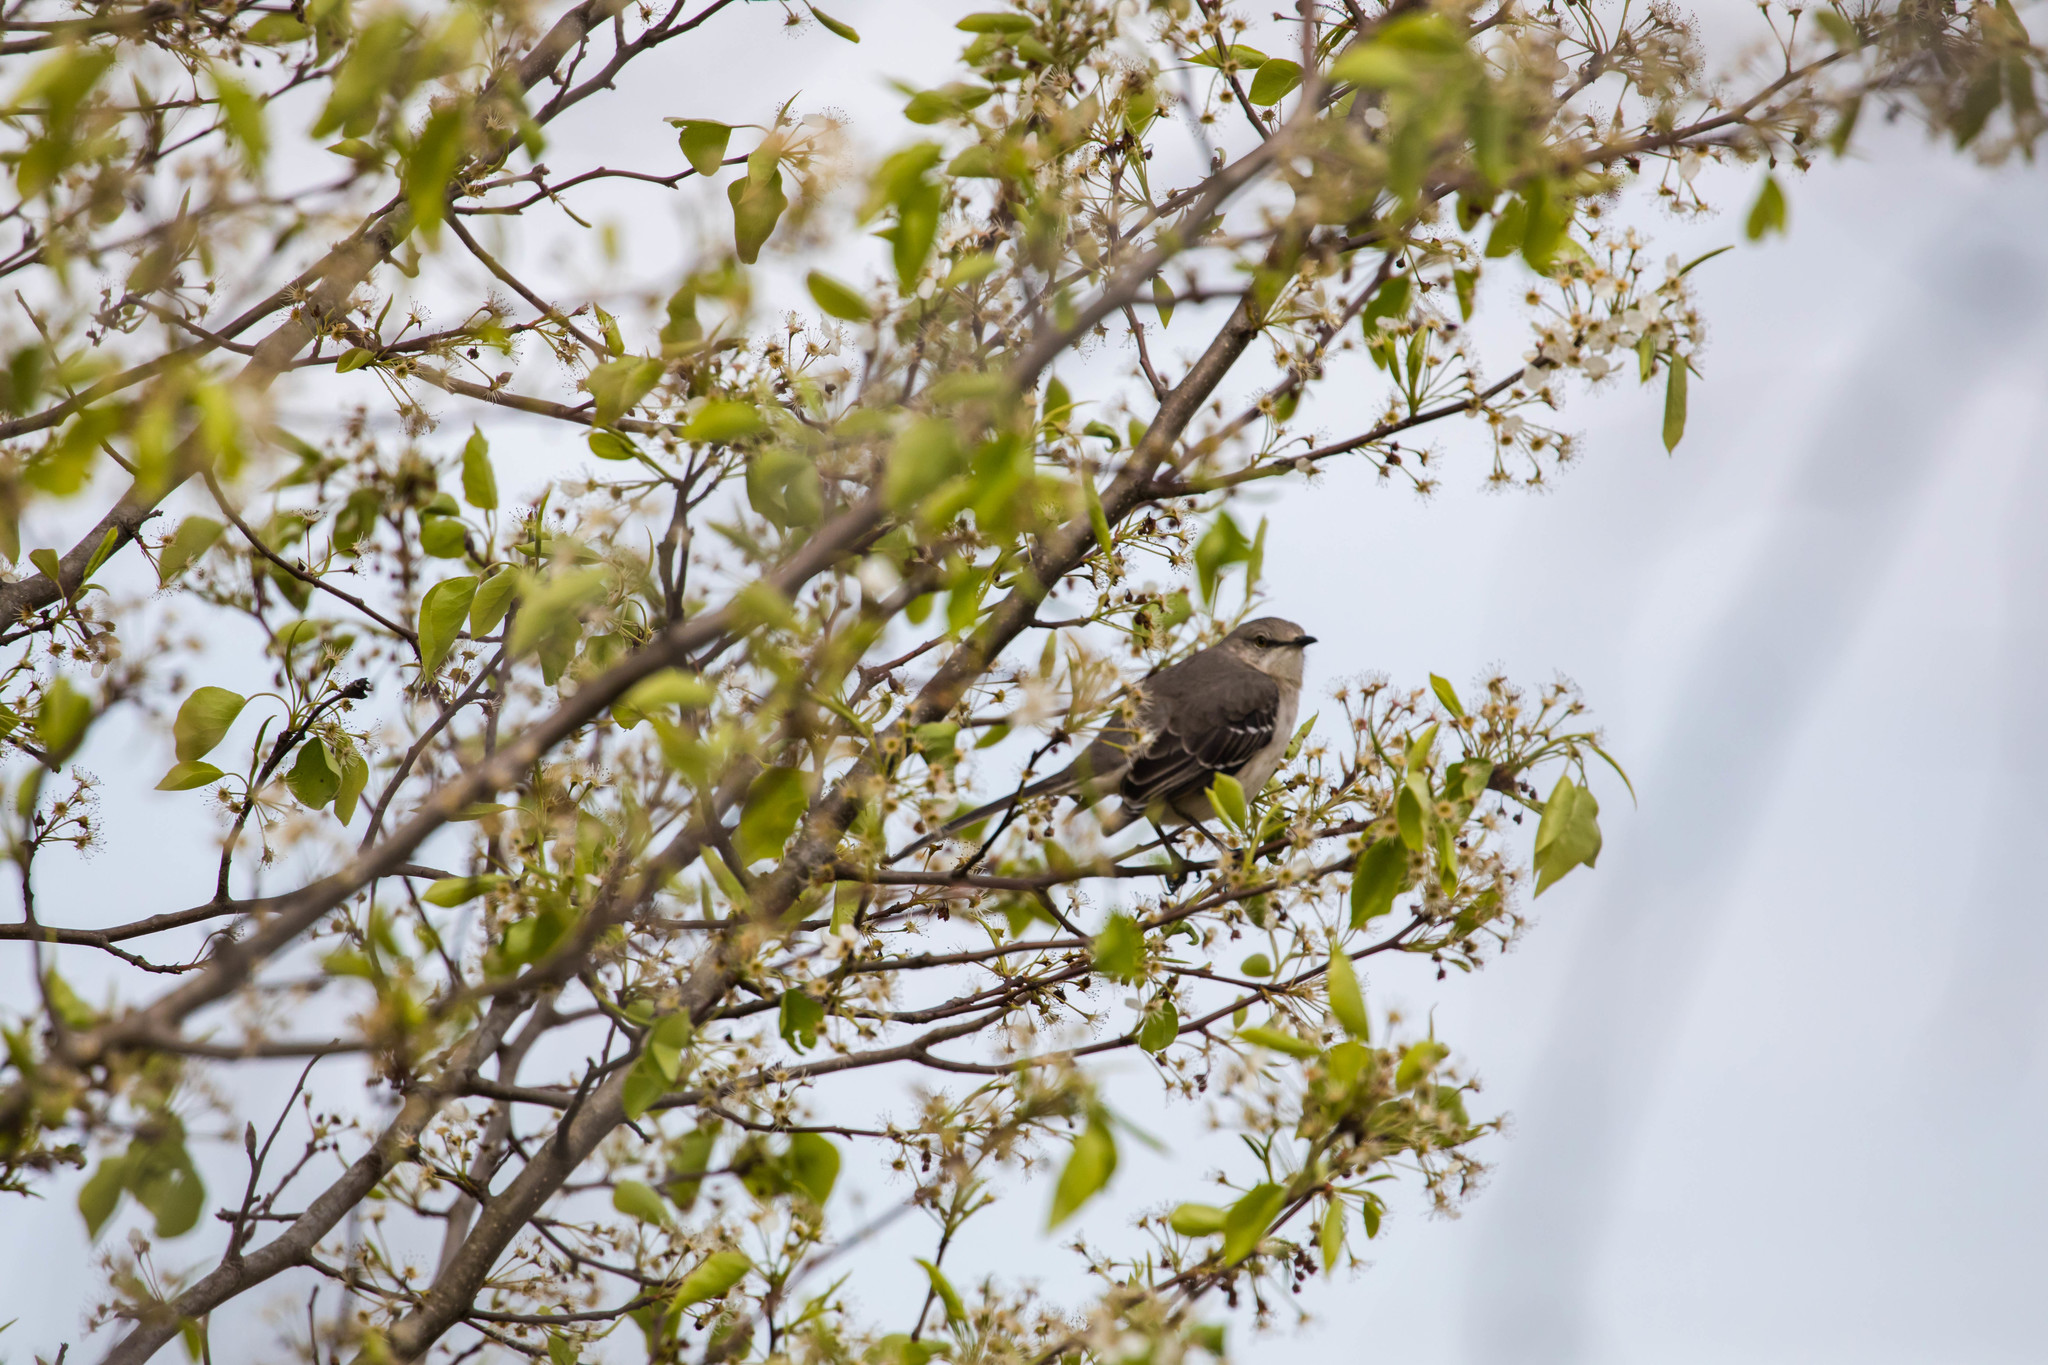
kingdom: Animalia
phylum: Chordata
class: Aves
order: Passeriformes
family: Mimidae
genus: Mimus
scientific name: Mimus polyglottos
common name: Northern mockingbird
